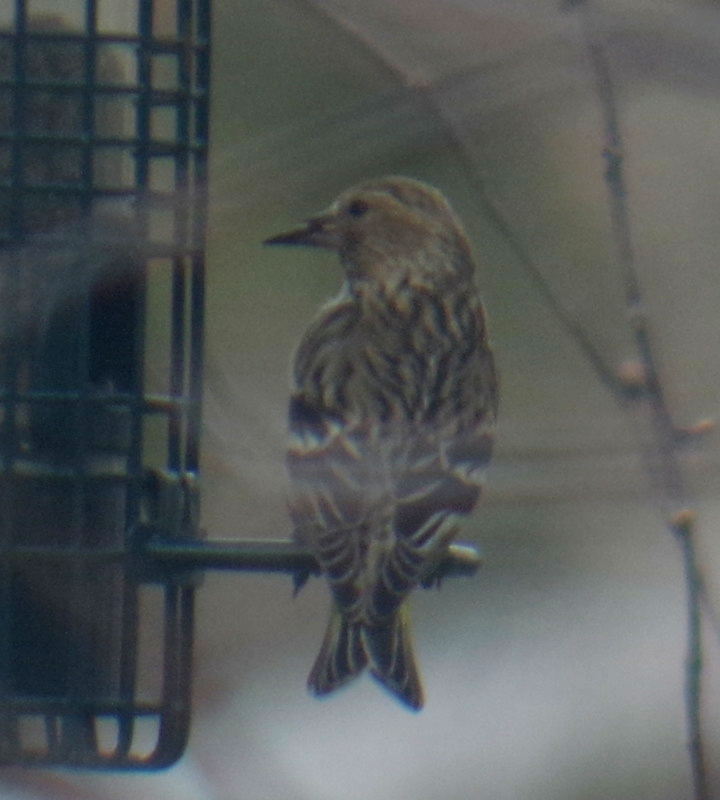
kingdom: Animalia
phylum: Chordata
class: Aves
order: Passeriformes
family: Fringillidae
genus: Spinus
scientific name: Spinus pinus
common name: Pine siskin
